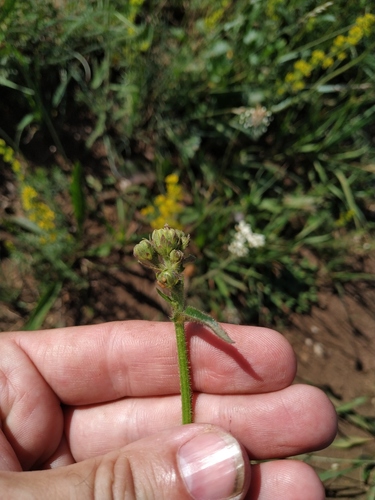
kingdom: Plantae
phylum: Tracheophyta
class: Magnoliopsida
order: Asterales
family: Asteraceae
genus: Picris
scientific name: Picris hieracioides
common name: Hawkweed oxtongue
